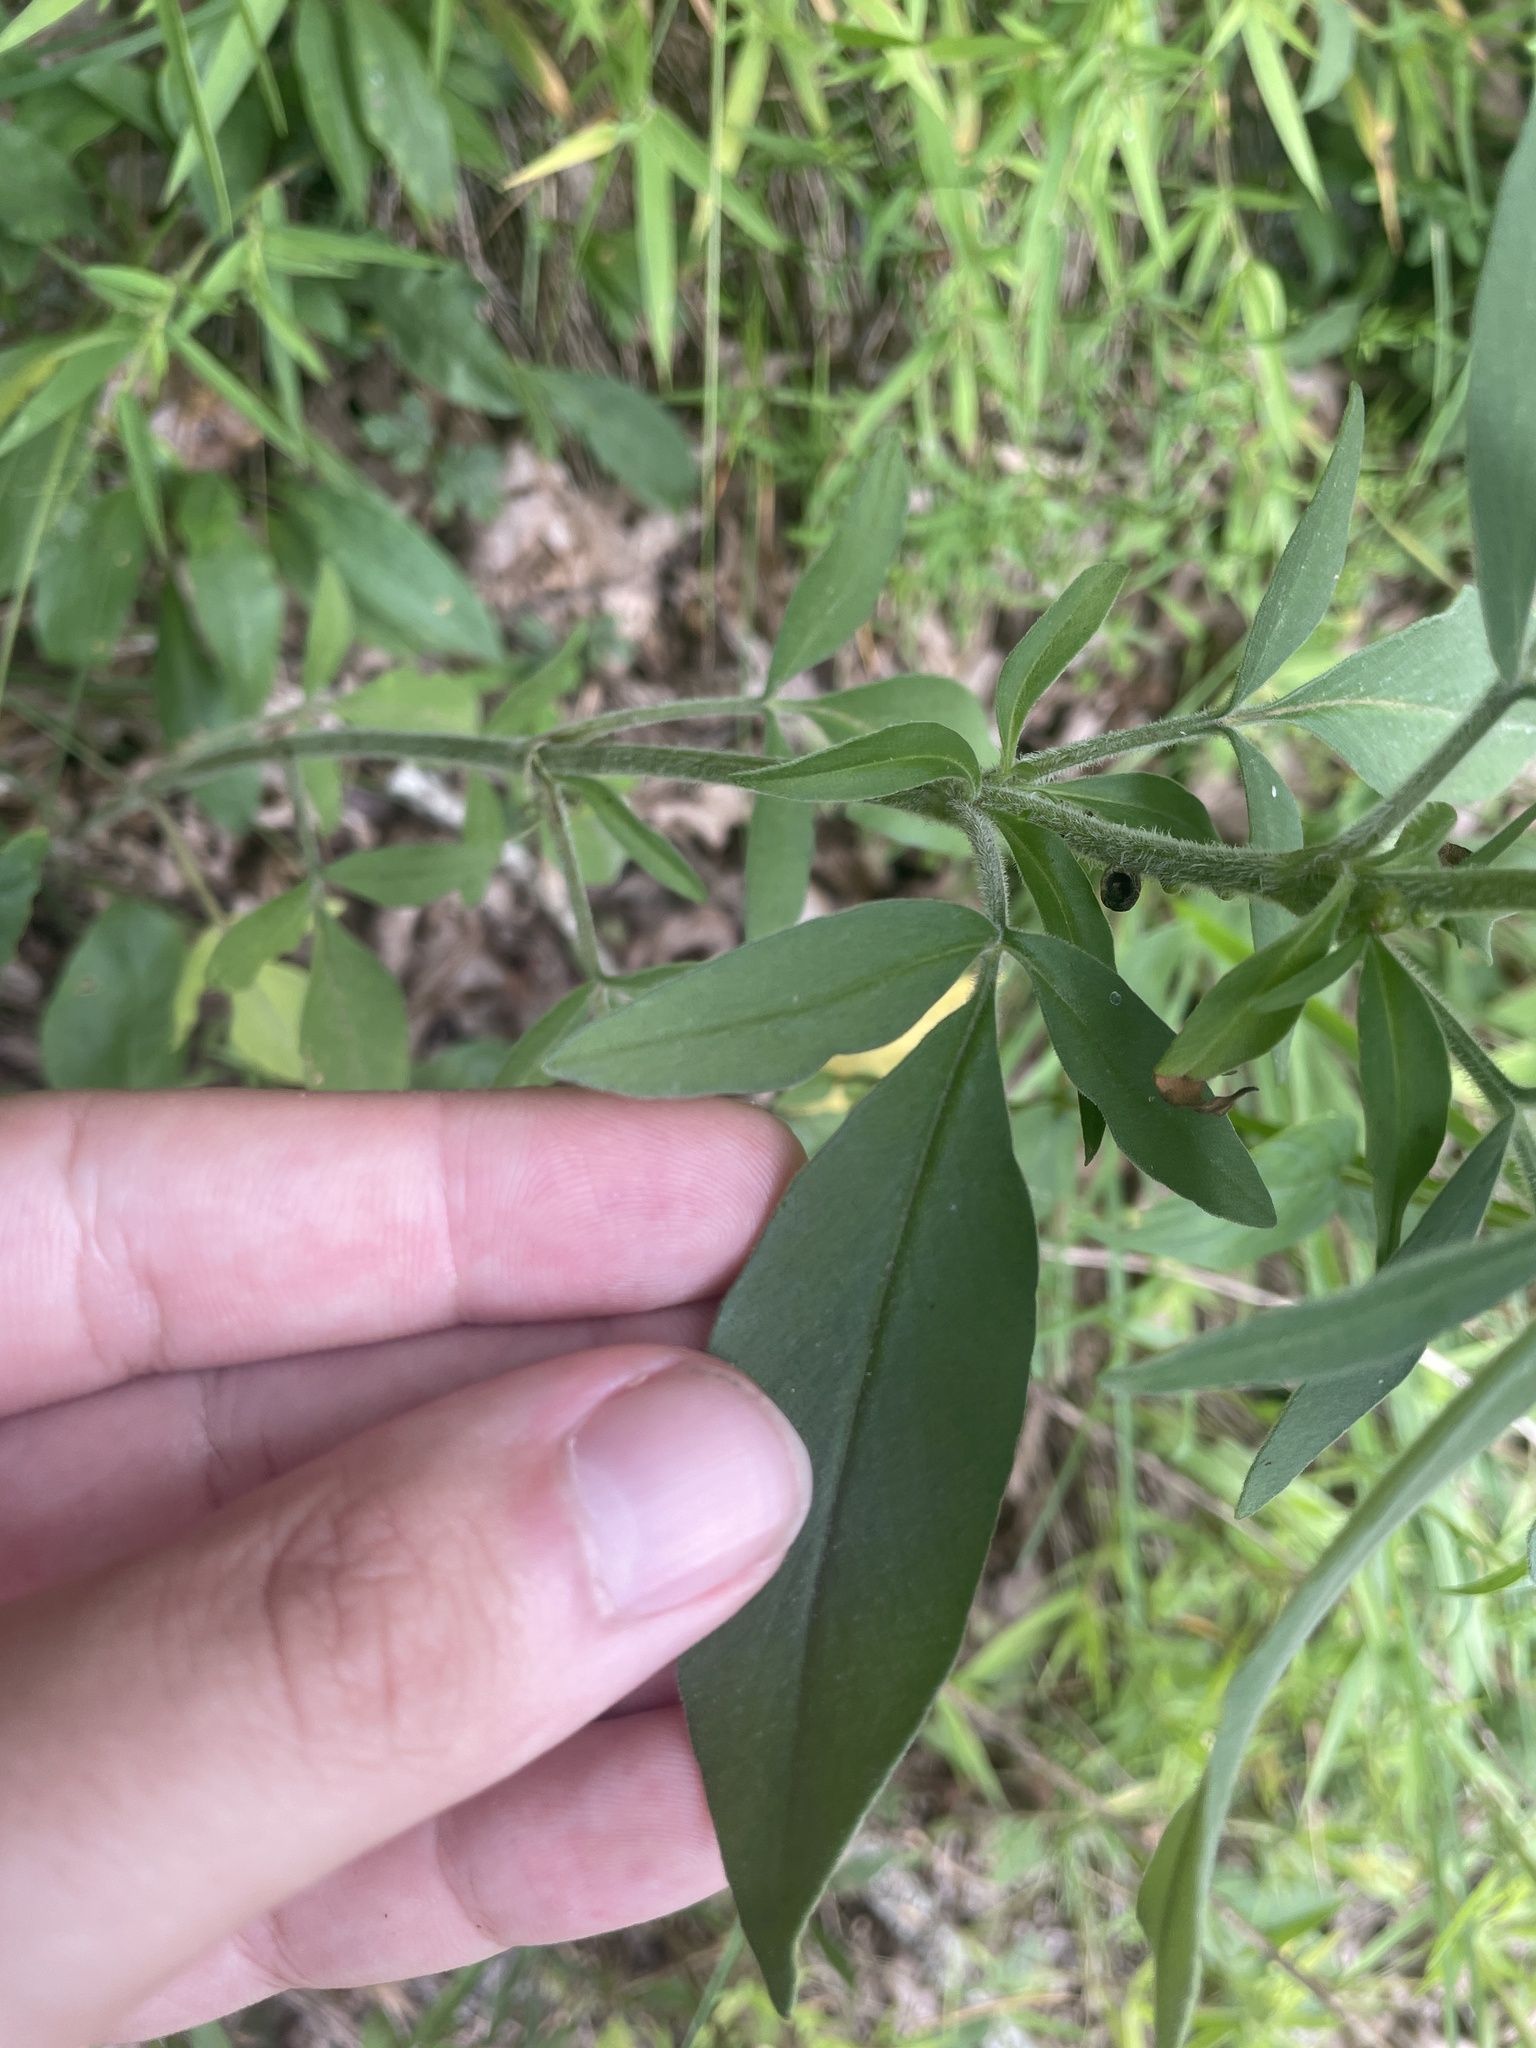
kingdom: Plantae
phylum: Tracheophyta
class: Magnoliopsida
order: Asterales
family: Asteraceae
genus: Coreopsis
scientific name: Coreopsis pubescens
